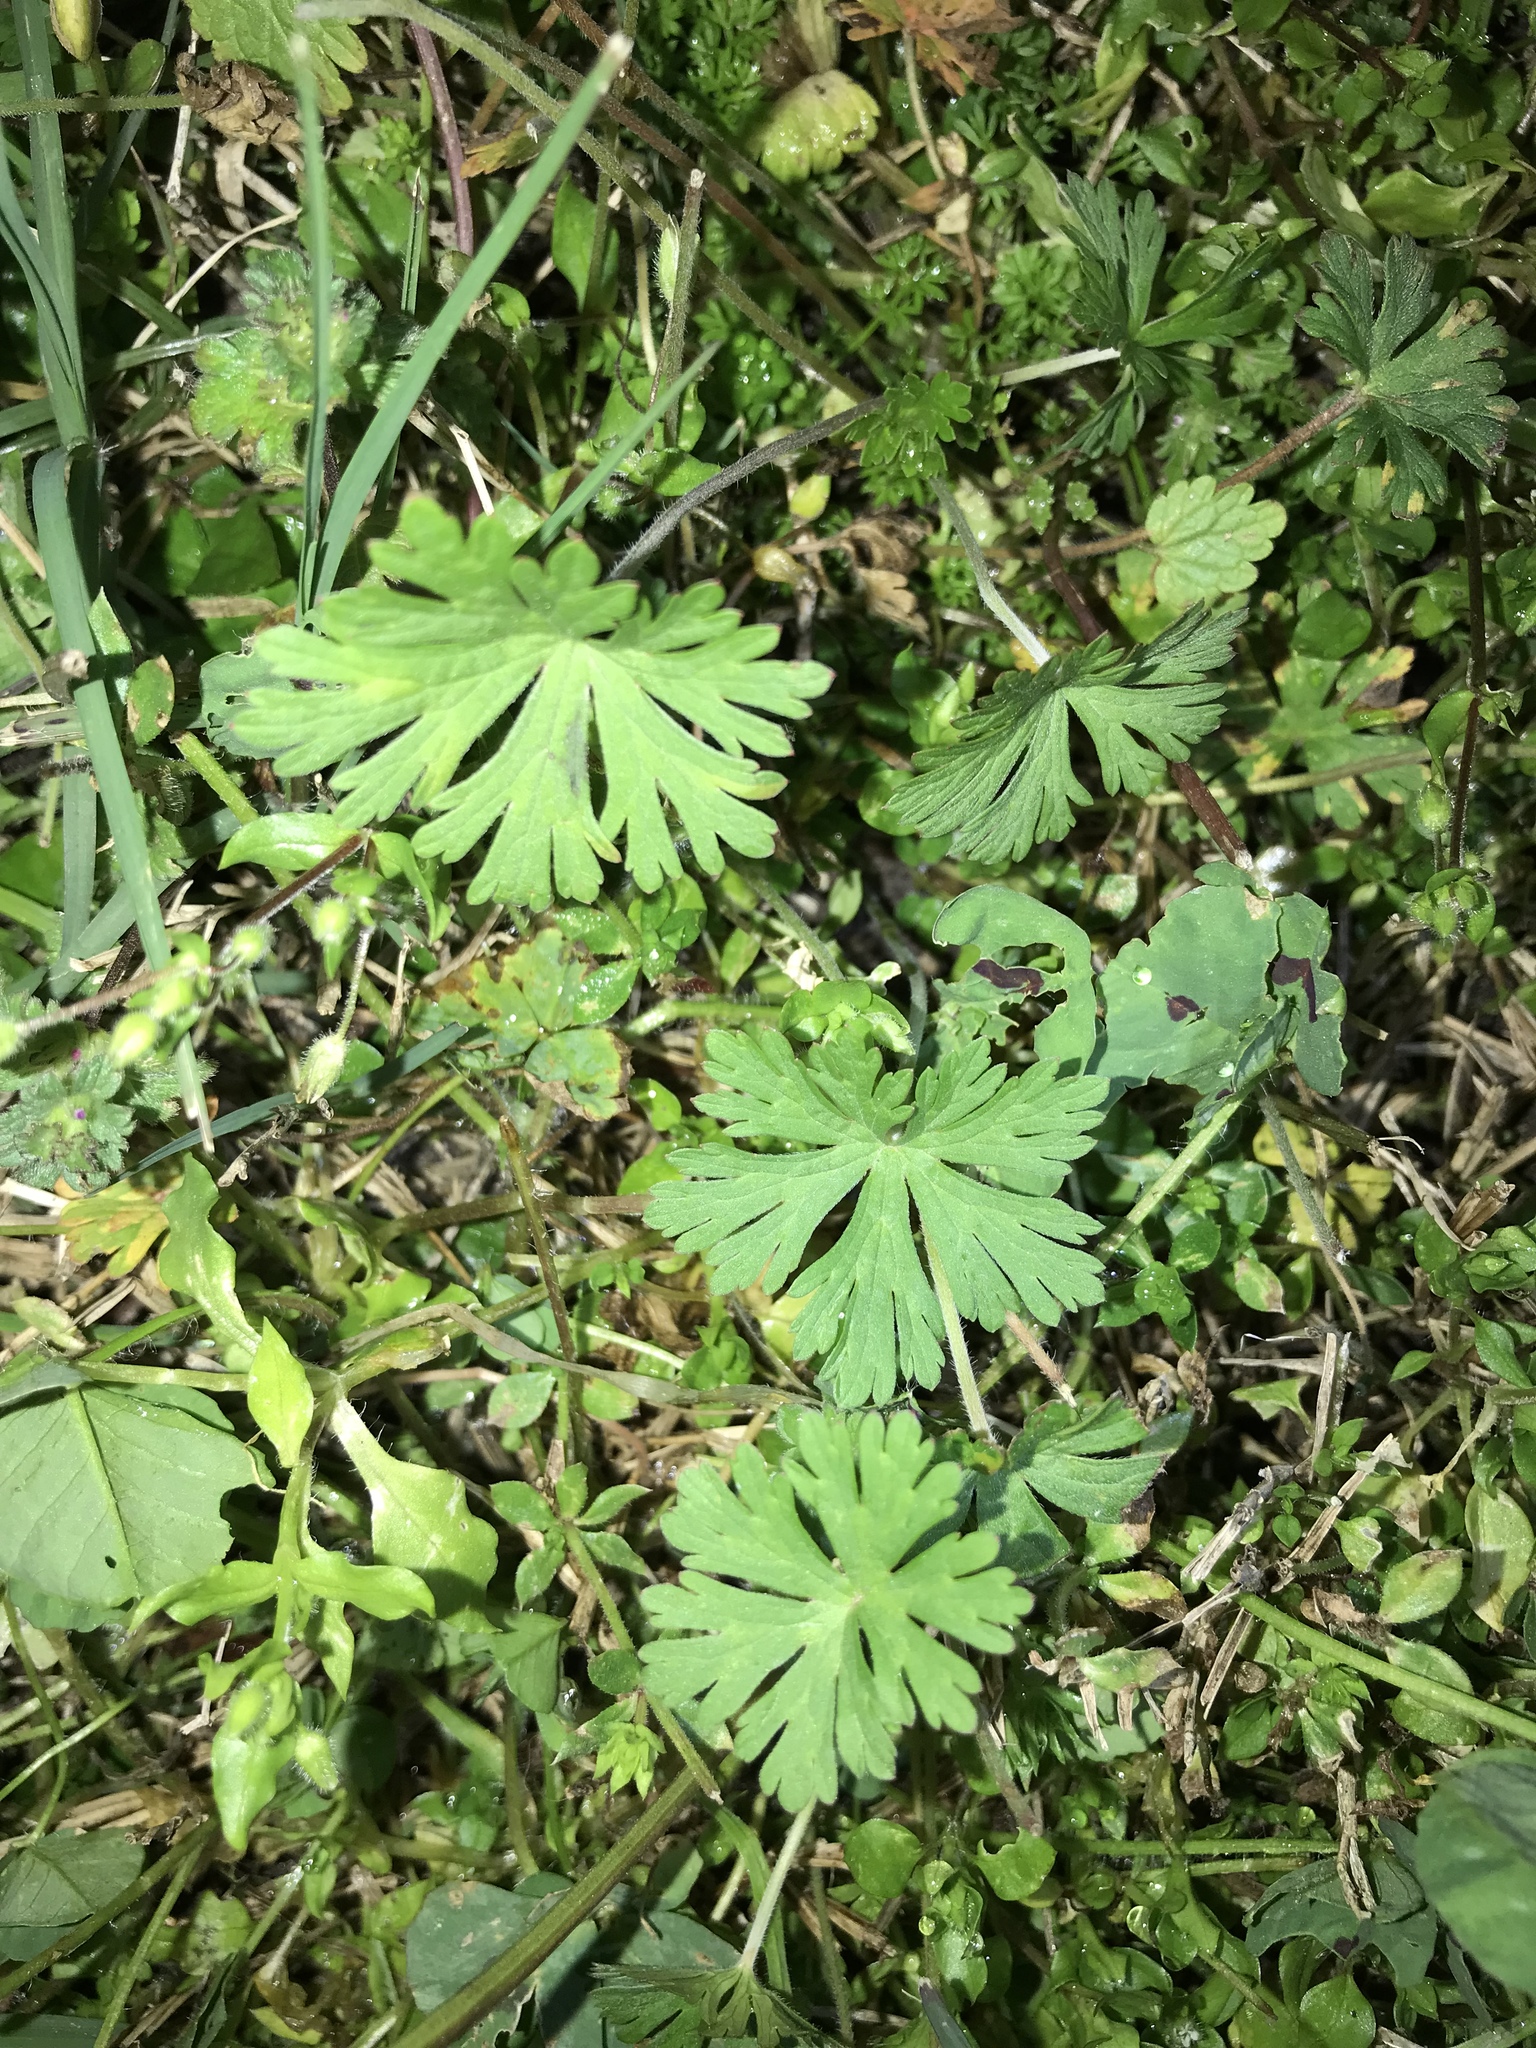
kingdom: Plantae
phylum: Tracheophyta
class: Magnoliopsida
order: Geraniales
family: Geraniaceae
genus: Geranium
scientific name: Geranium carolinianum
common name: Carolina crane's-bill
